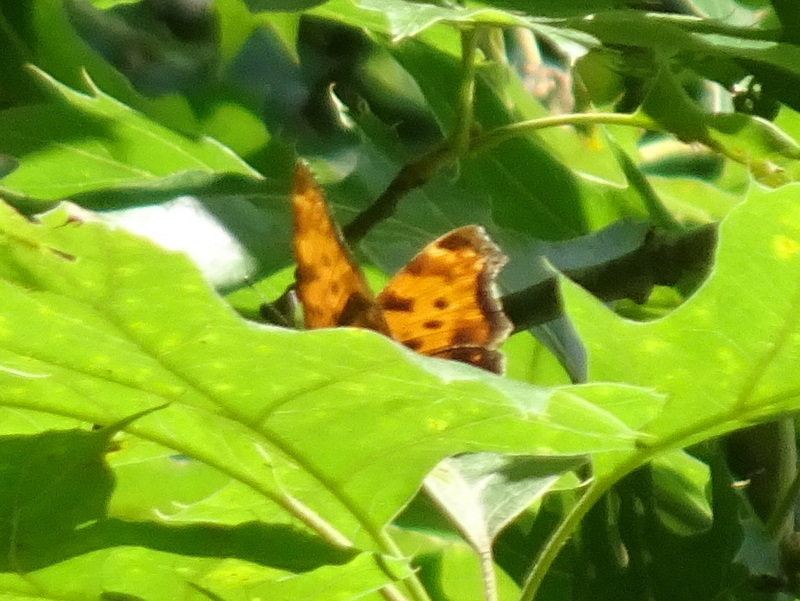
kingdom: Animalia
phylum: Arthropoda
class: Insecta
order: Lepidoptera
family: Nymphalidae
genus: Polygonia
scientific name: Polygonia comma
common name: Eastern comma
